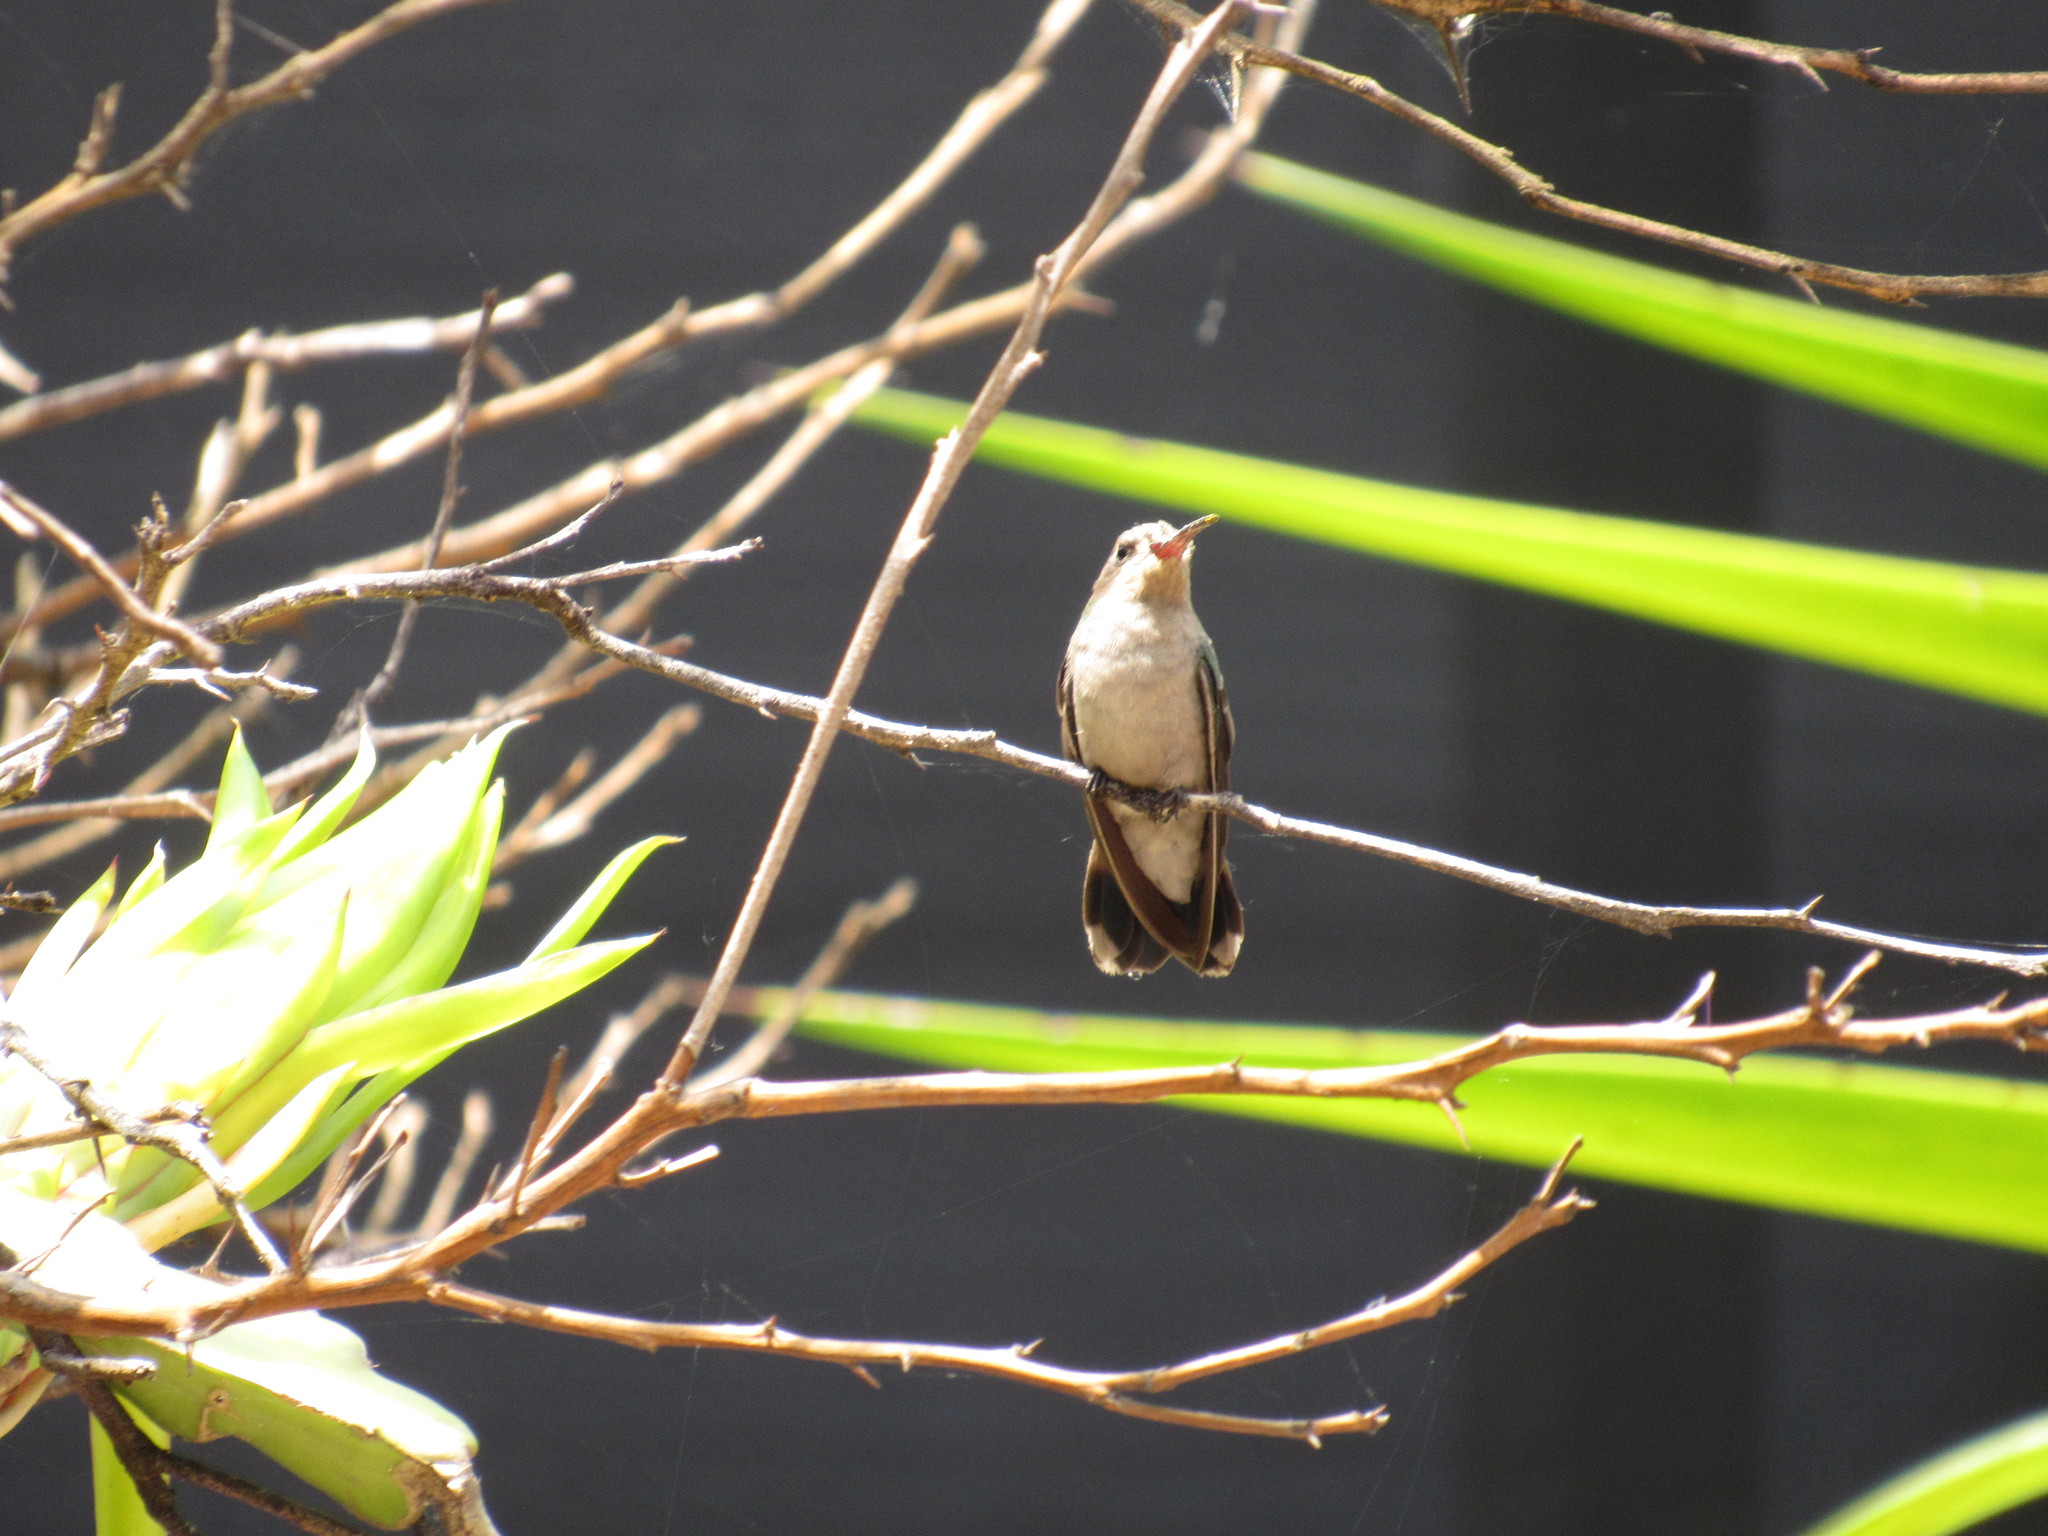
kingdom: Animalia
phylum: Chordata
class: Aves
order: Apodiformes
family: Trochilidae
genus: Cynanthus
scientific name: Cynanthus latirostris
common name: Broad-billed hummingbird
